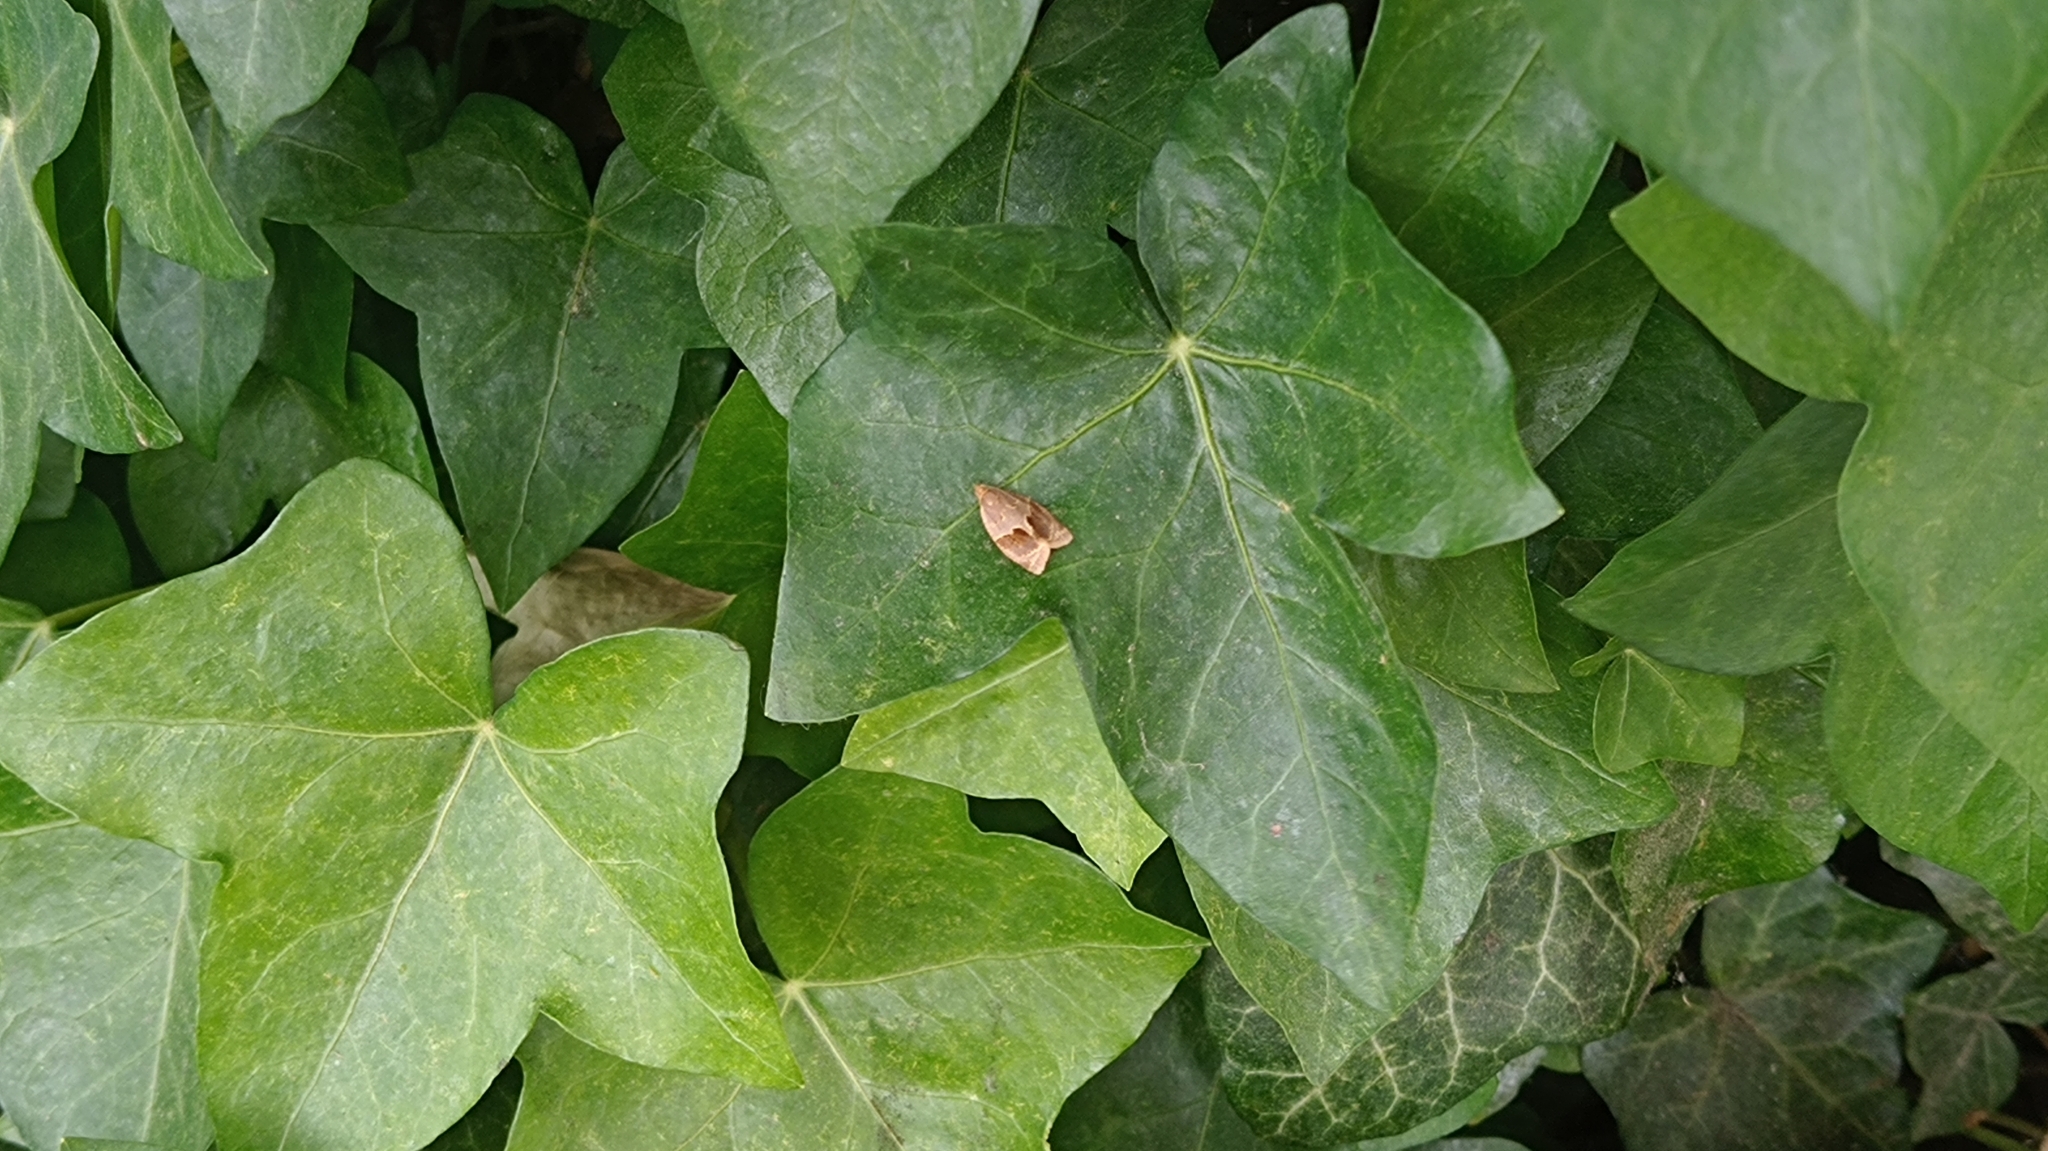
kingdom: Animalia
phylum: Arthropoda
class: Insecta
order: Lepidoptera
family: Tortricidae
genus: Clepsis
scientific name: Clepsis dumicolana
